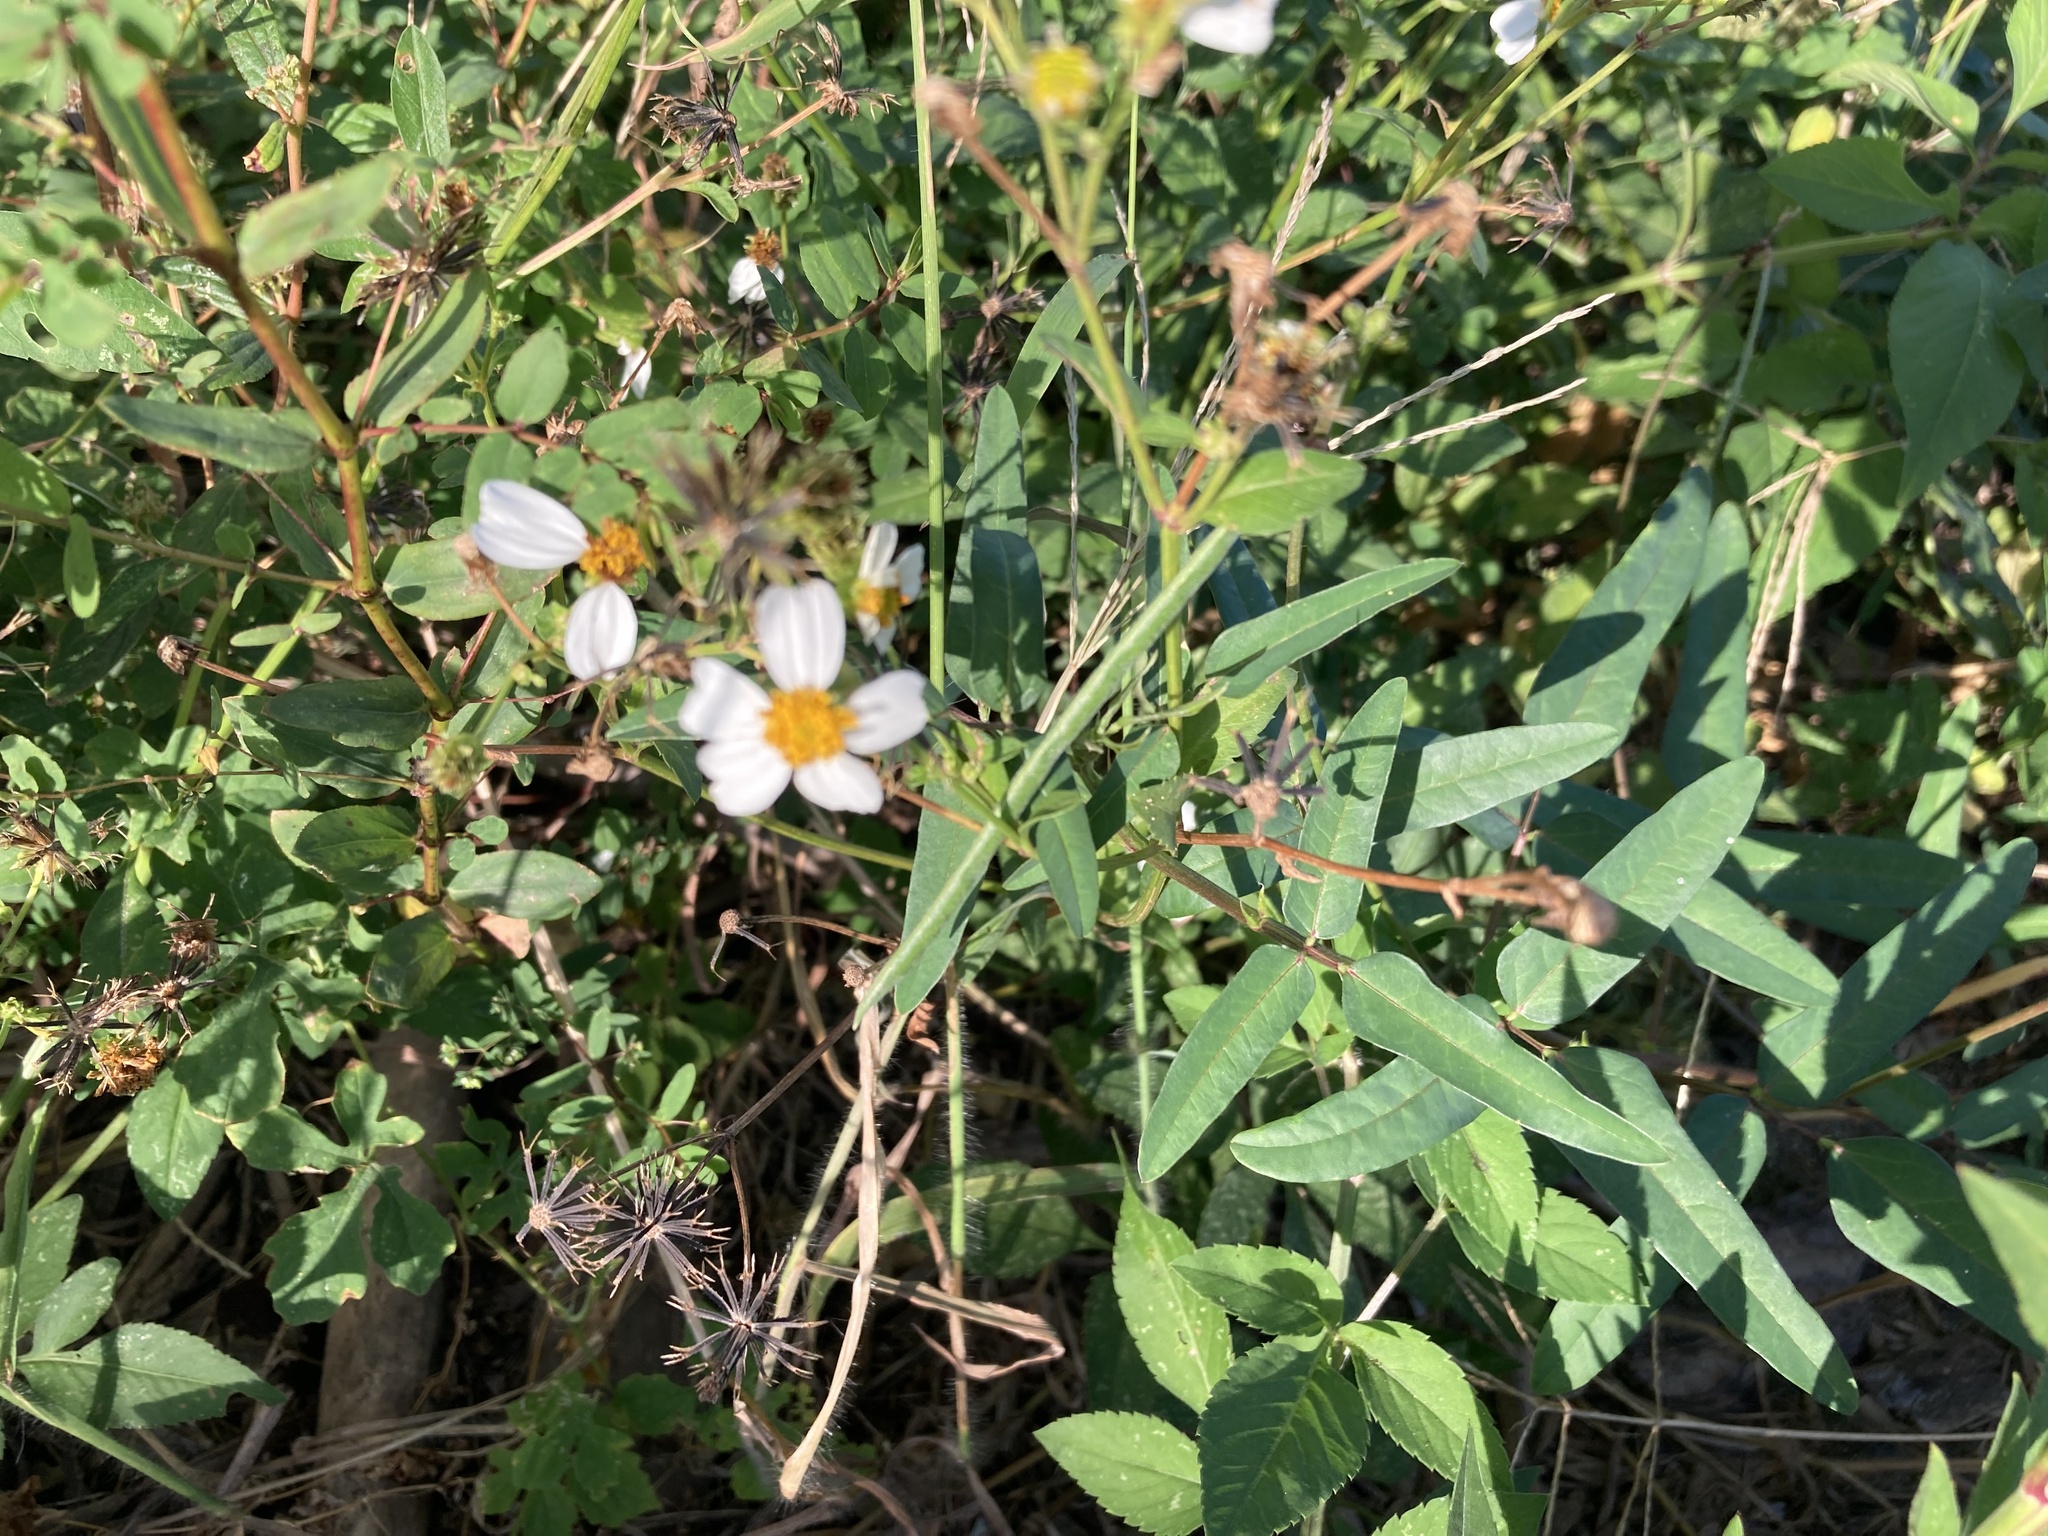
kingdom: Plantae
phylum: Tracheophyta
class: Magnoliopsida
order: Asterales
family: Asteraceae
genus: Bidens
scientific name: Bidens alba
